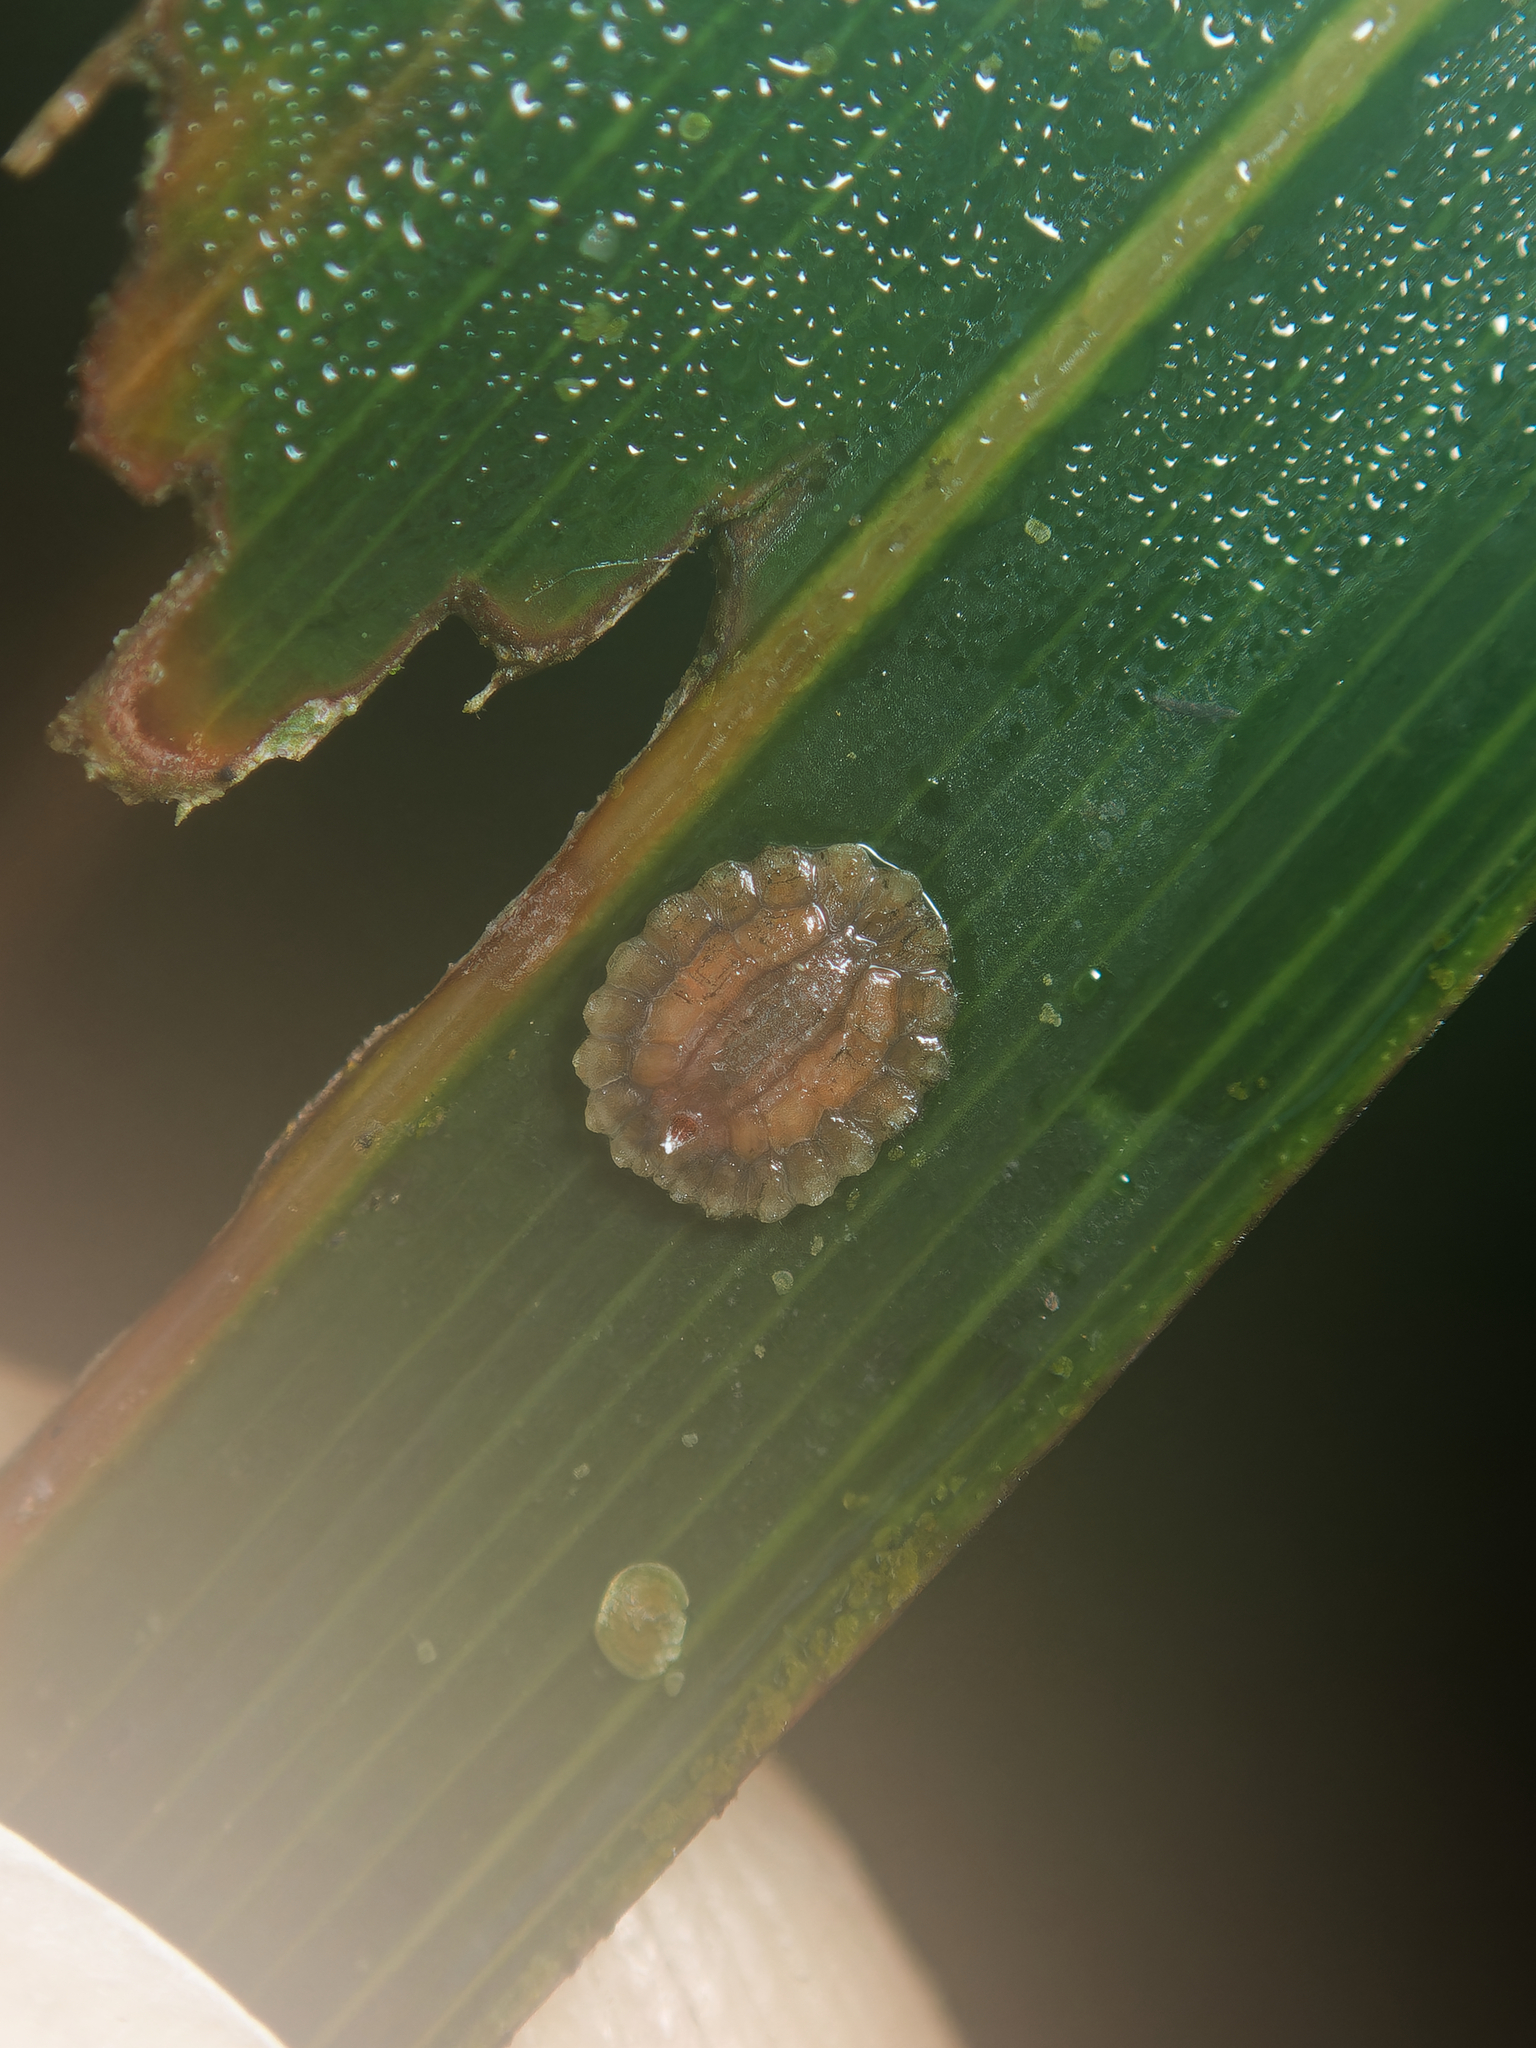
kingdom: Animalia
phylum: Arthropoda
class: Insecta
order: Hemiptera
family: Coccidae
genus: Plumichiton
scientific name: Plumichiton nikau
